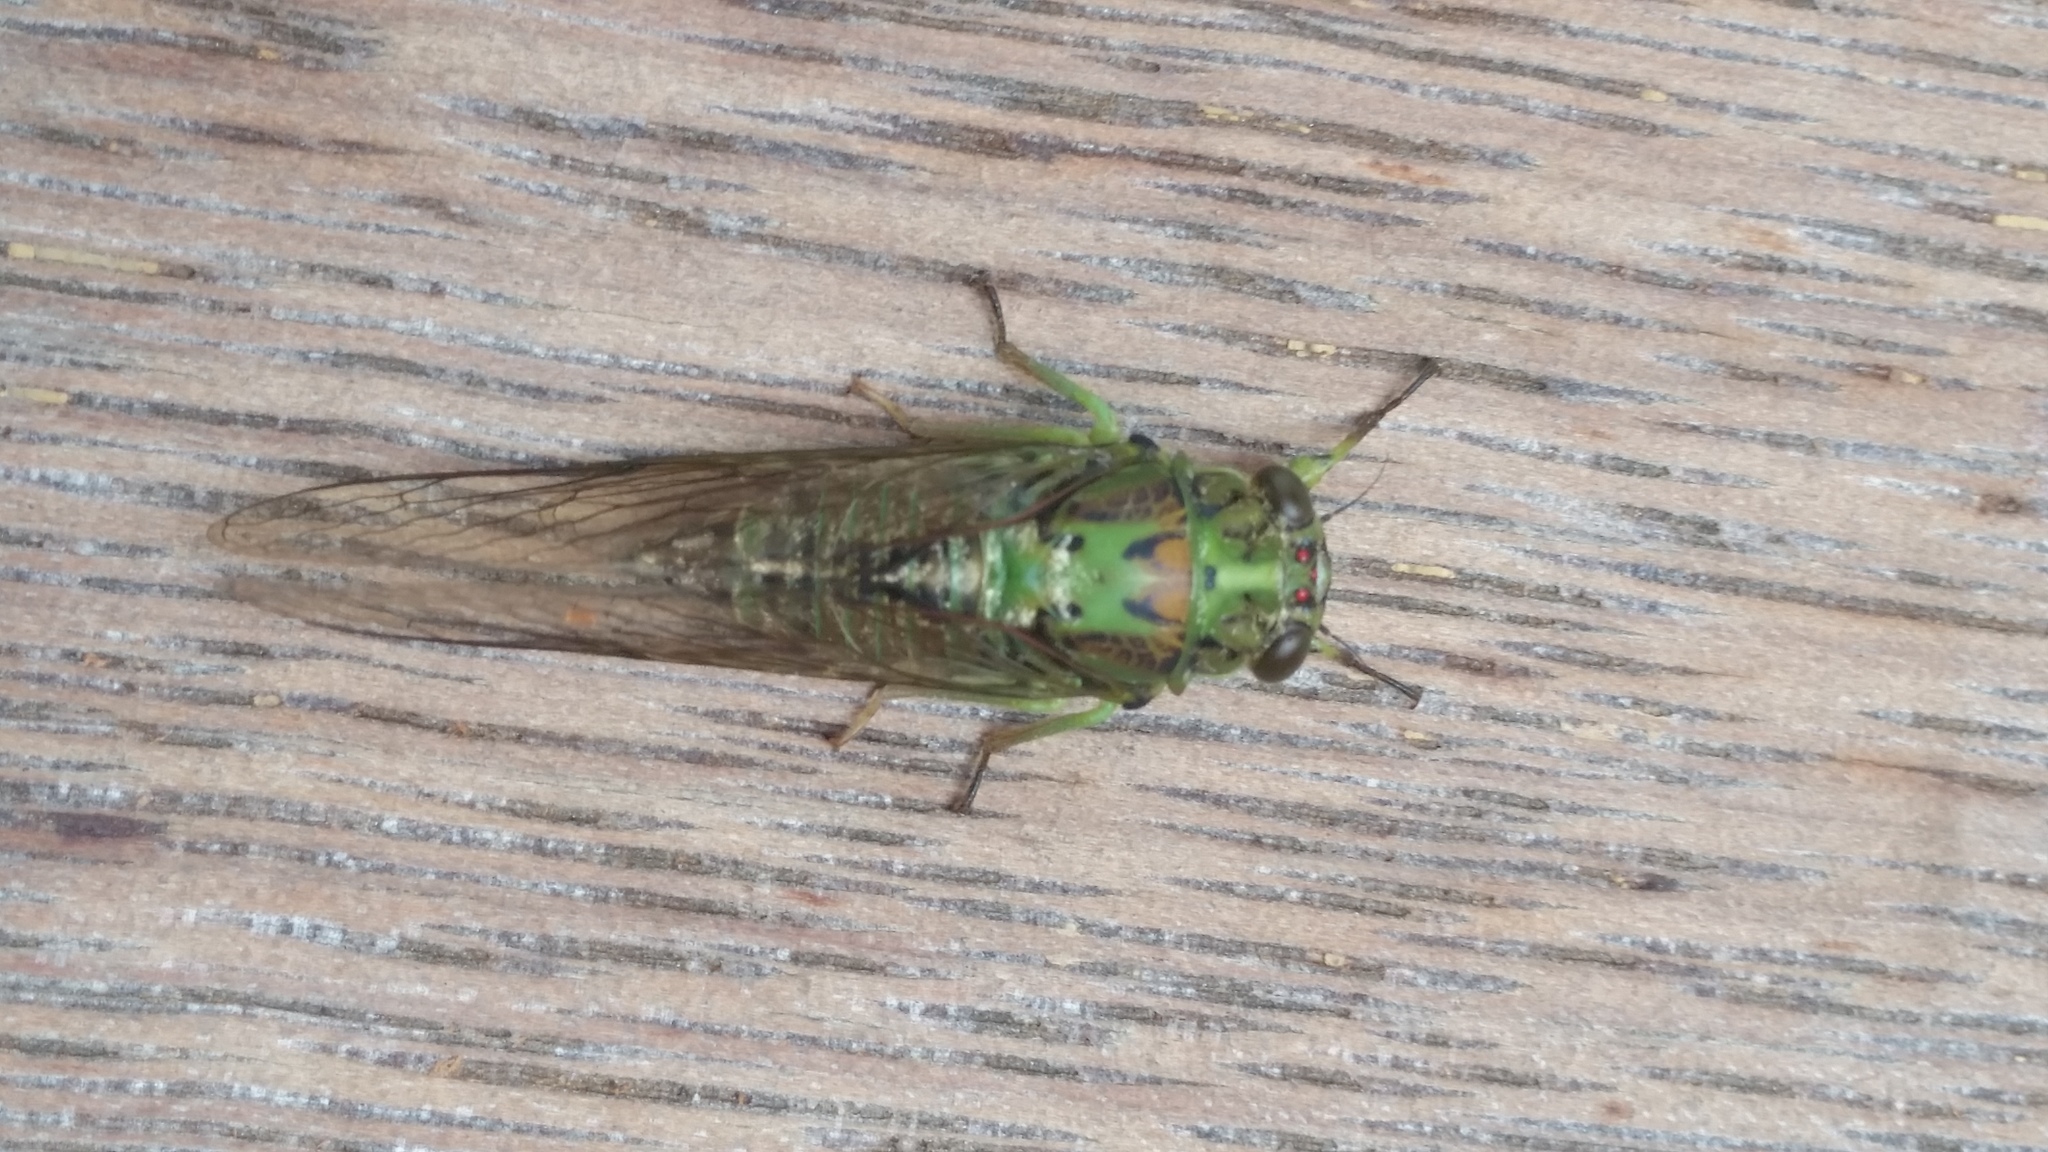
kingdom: Animalia
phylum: Arthropoda
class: Insecta
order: Hemiptera
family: Cicadidae
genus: Kikihia
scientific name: Kikihia scutellaris
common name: Lesser bronze cicada
